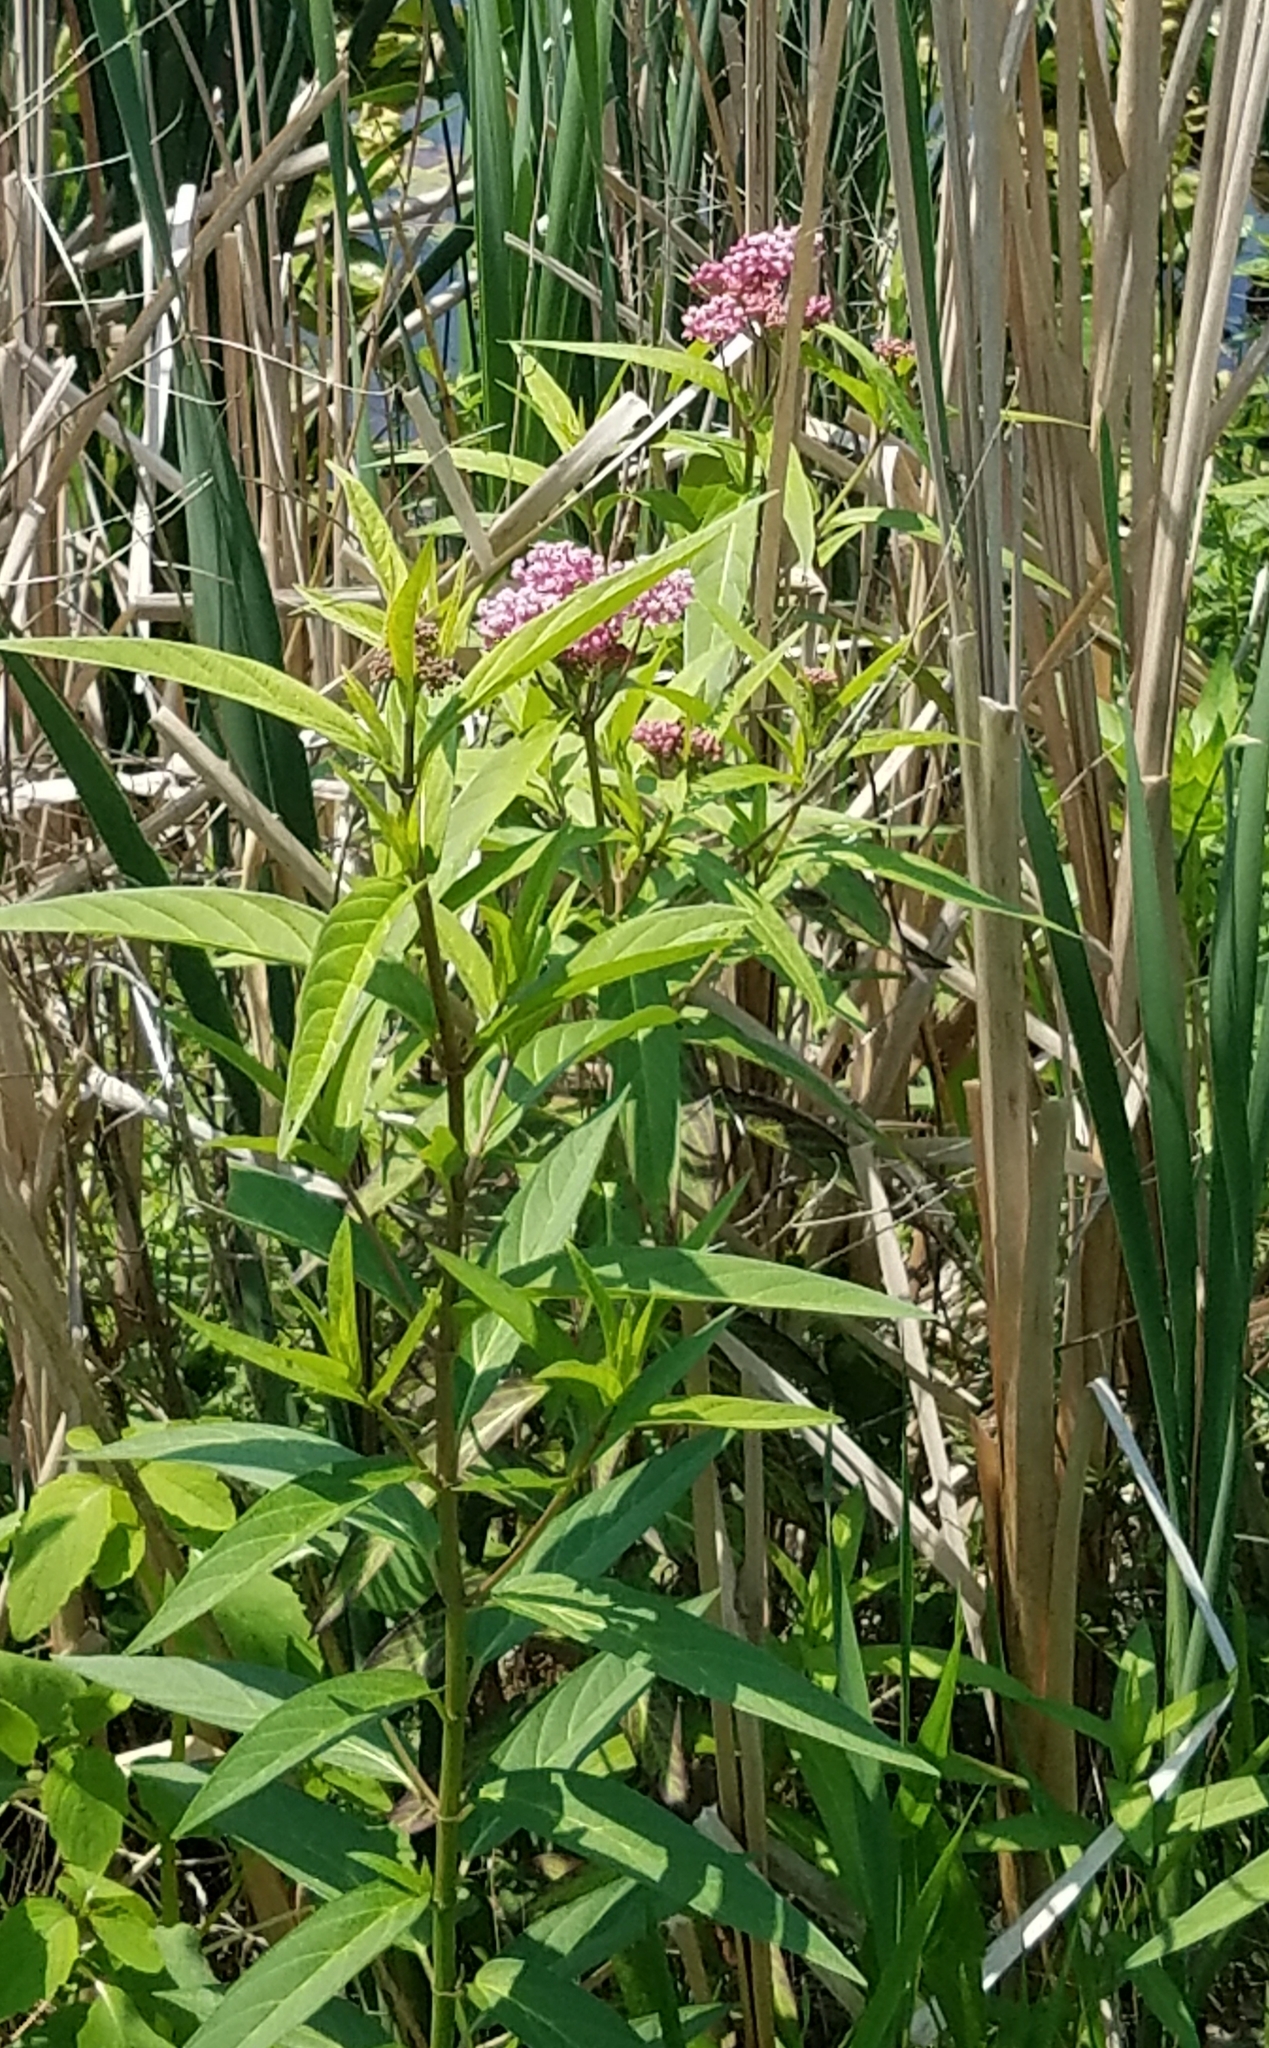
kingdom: Plantae
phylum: Tracheophyta
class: Magnoliopsida
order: Gentianales
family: Apocynaceae
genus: Asclepias
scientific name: Asclepias incarnata
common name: Swamp milkweed
